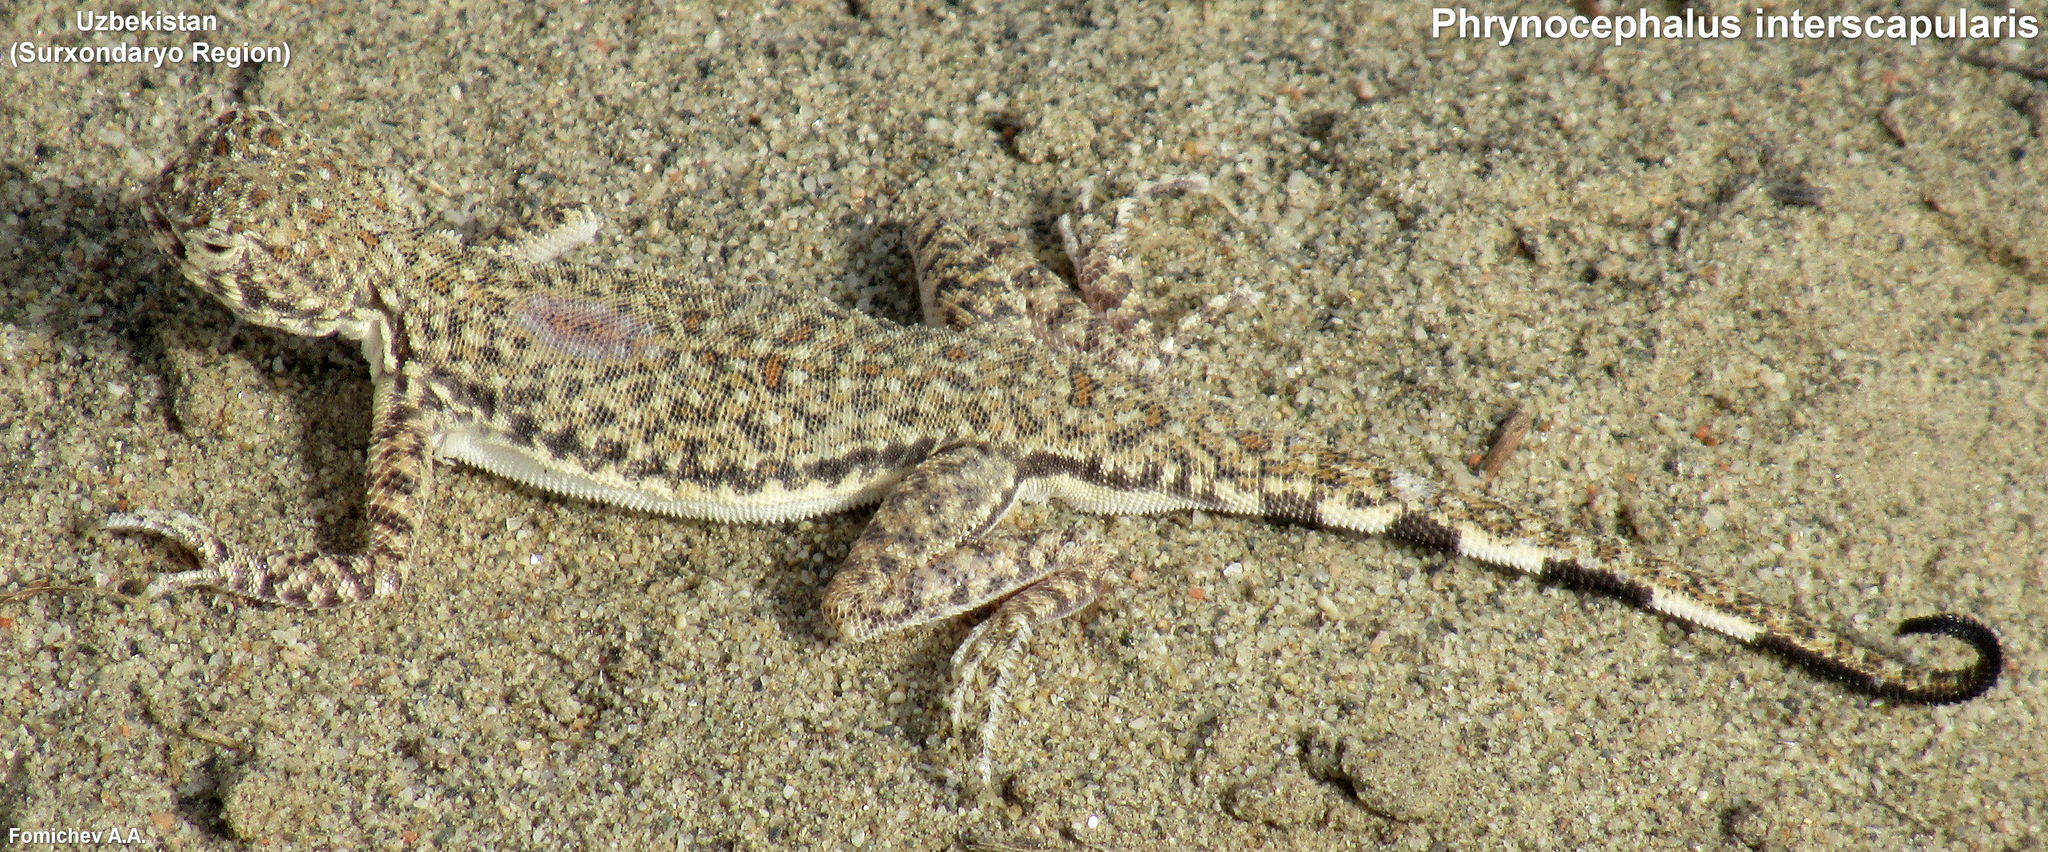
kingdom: Animalia
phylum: Chordata
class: Squamata
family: Agamidae
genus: Phrynocephalus
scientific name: Phrynocephalus interscapularis
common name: Lichtenstein's toadhead agama
